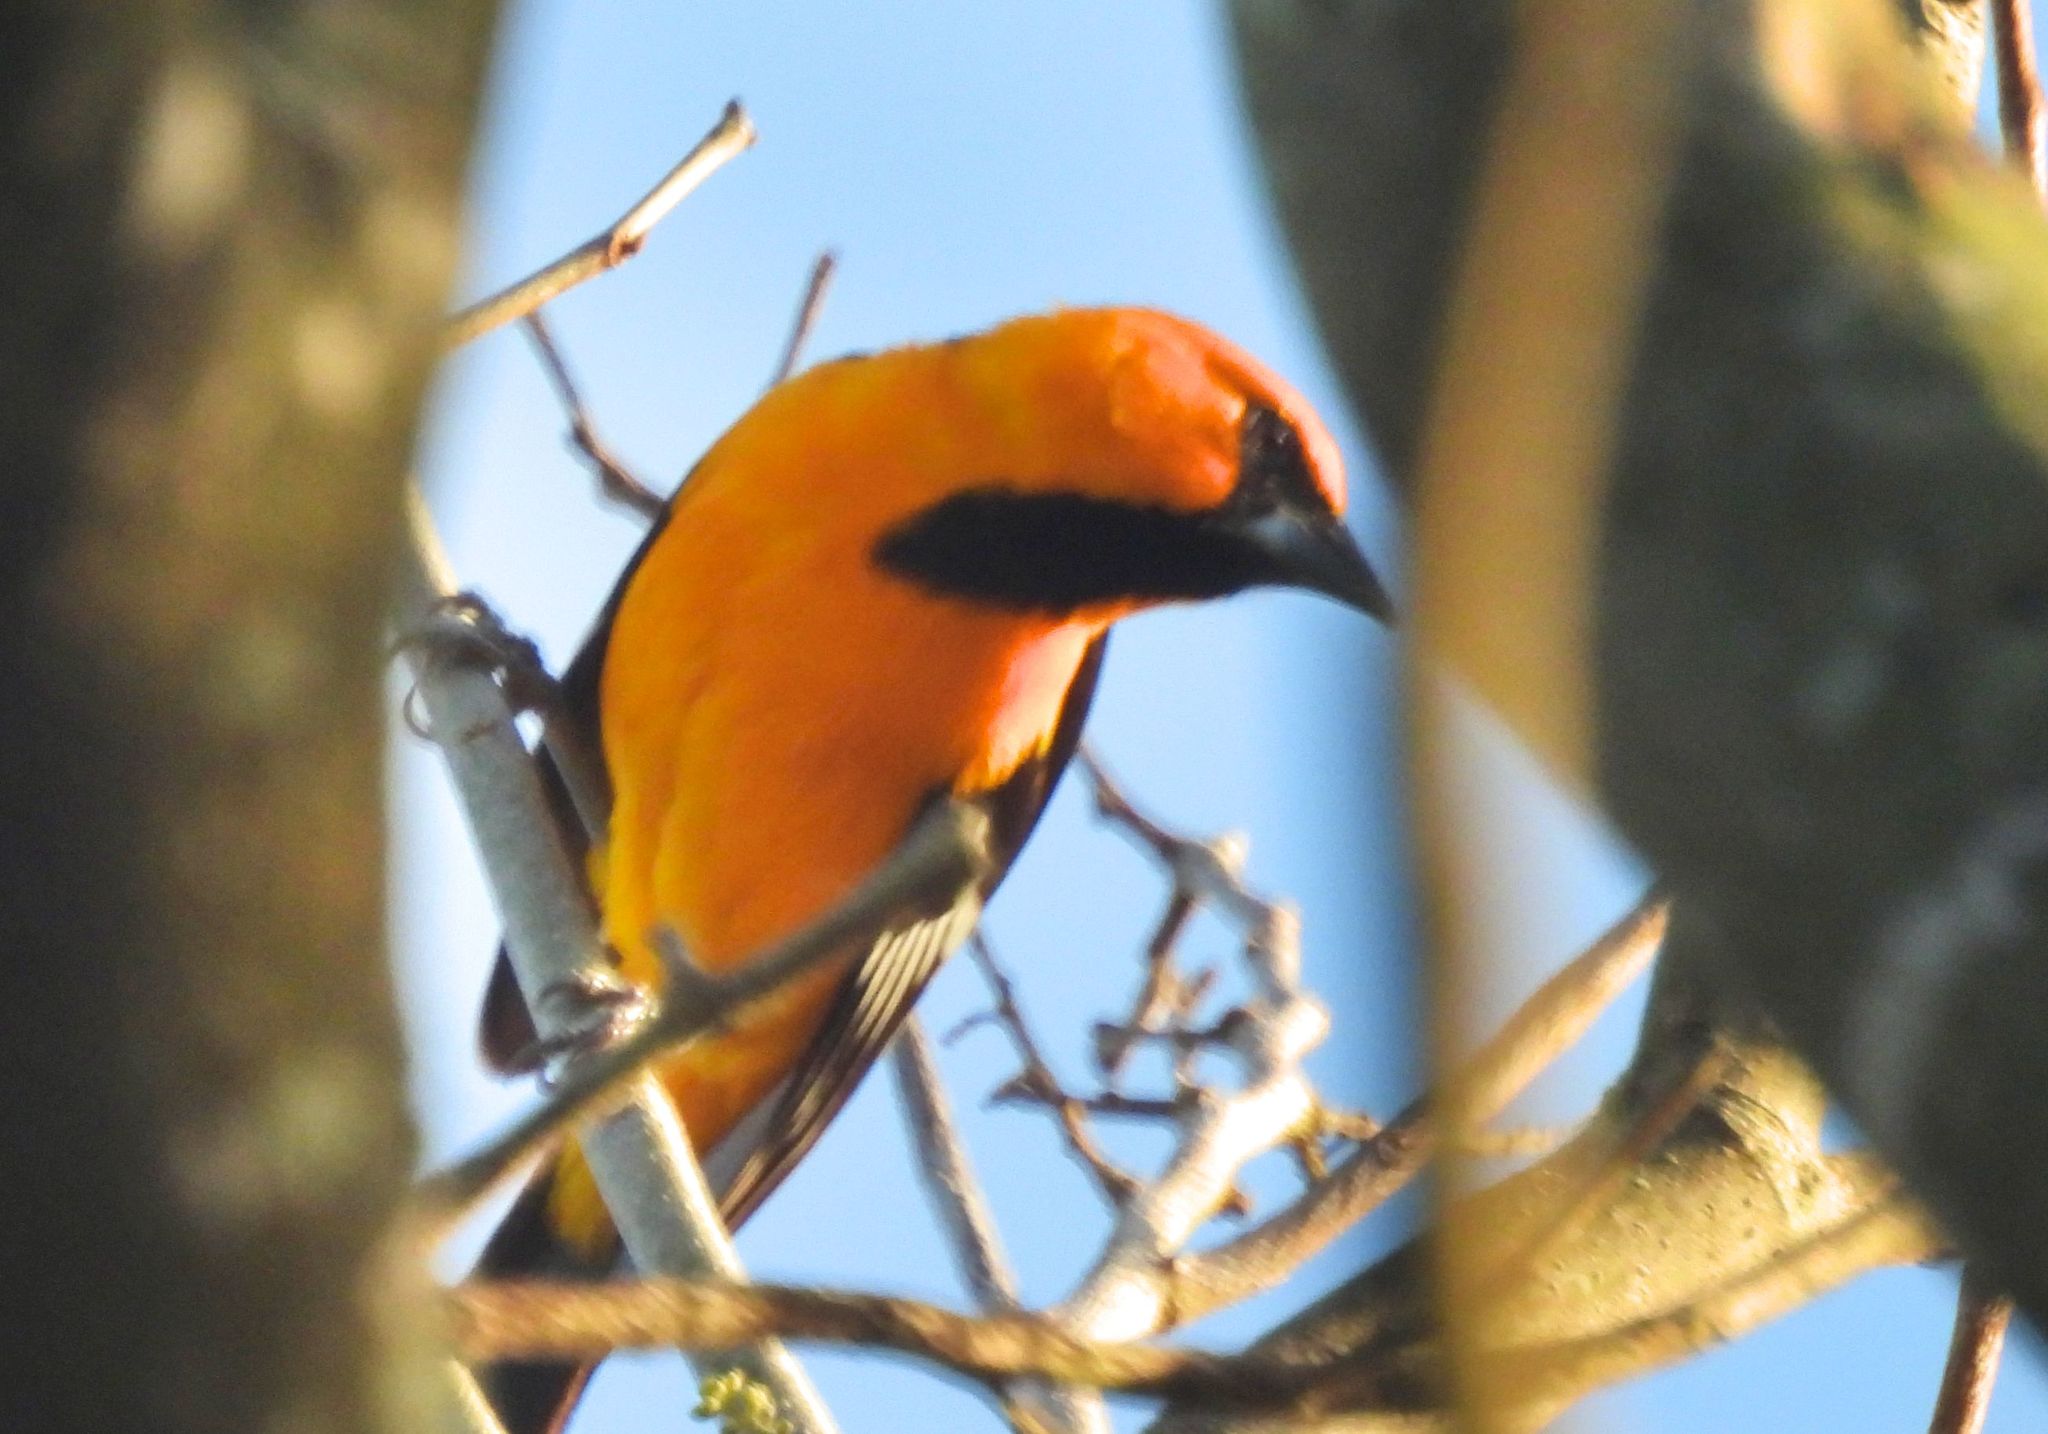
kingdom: Animalia
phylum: Chordata
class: Aves
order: Passeriformes
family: Icteridae
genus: Icterus
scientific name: Icterus gularis
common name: Altamira oriole
